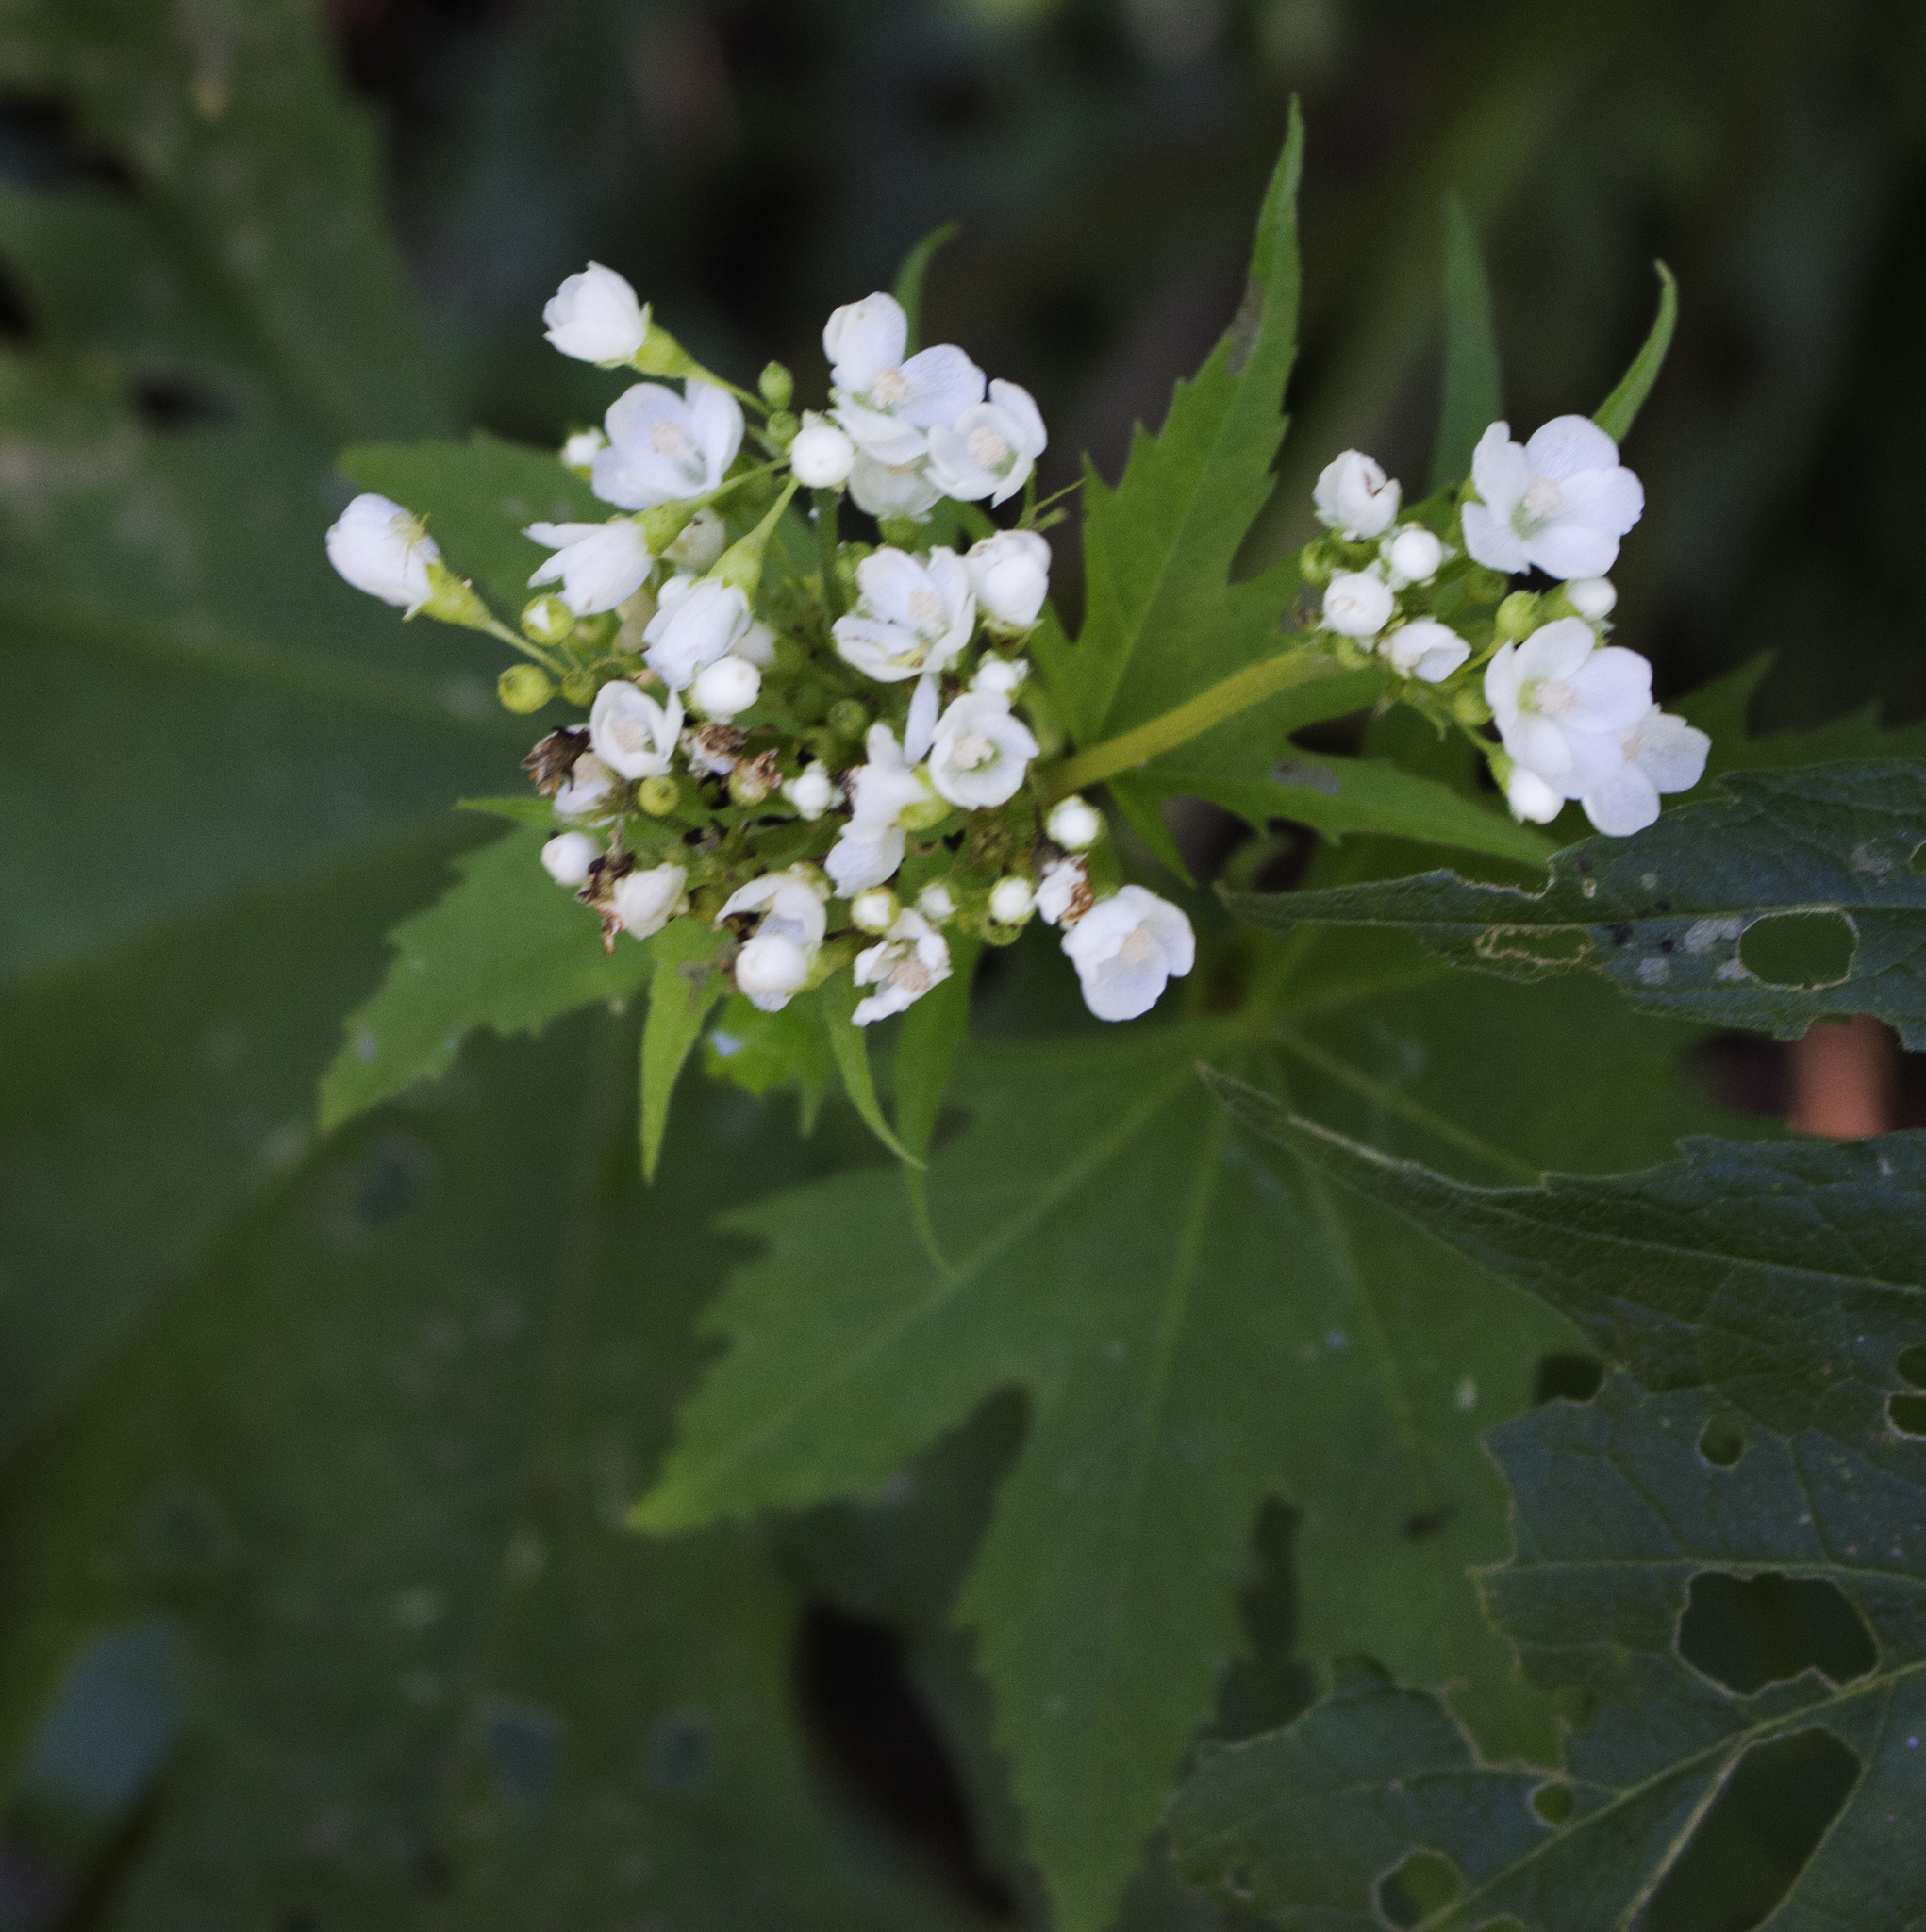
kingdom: Plantae
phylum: Tracheophyta
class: Magnoliopsida
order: Malvales
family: Malvaceae
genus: Napaea
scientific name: Napaea dioica
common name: Glade-mallow
